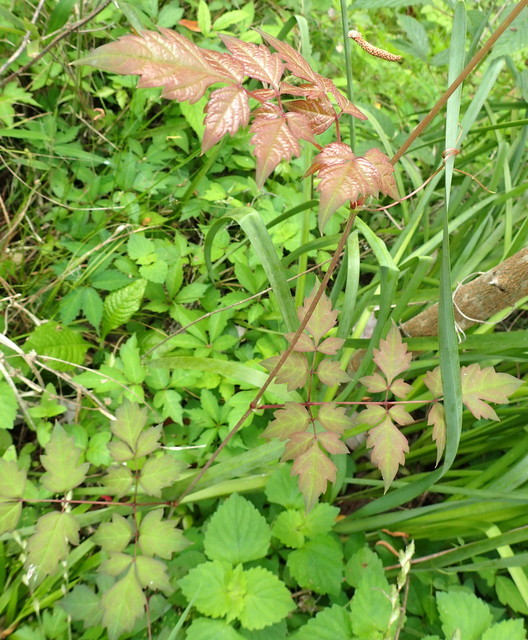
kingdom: Plantae
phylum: Tracheophyta
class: Magnoliopsida
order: Vitales
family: Vitaceae
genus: Nekemias
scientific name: Nekemias arborea
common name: Peppervine
